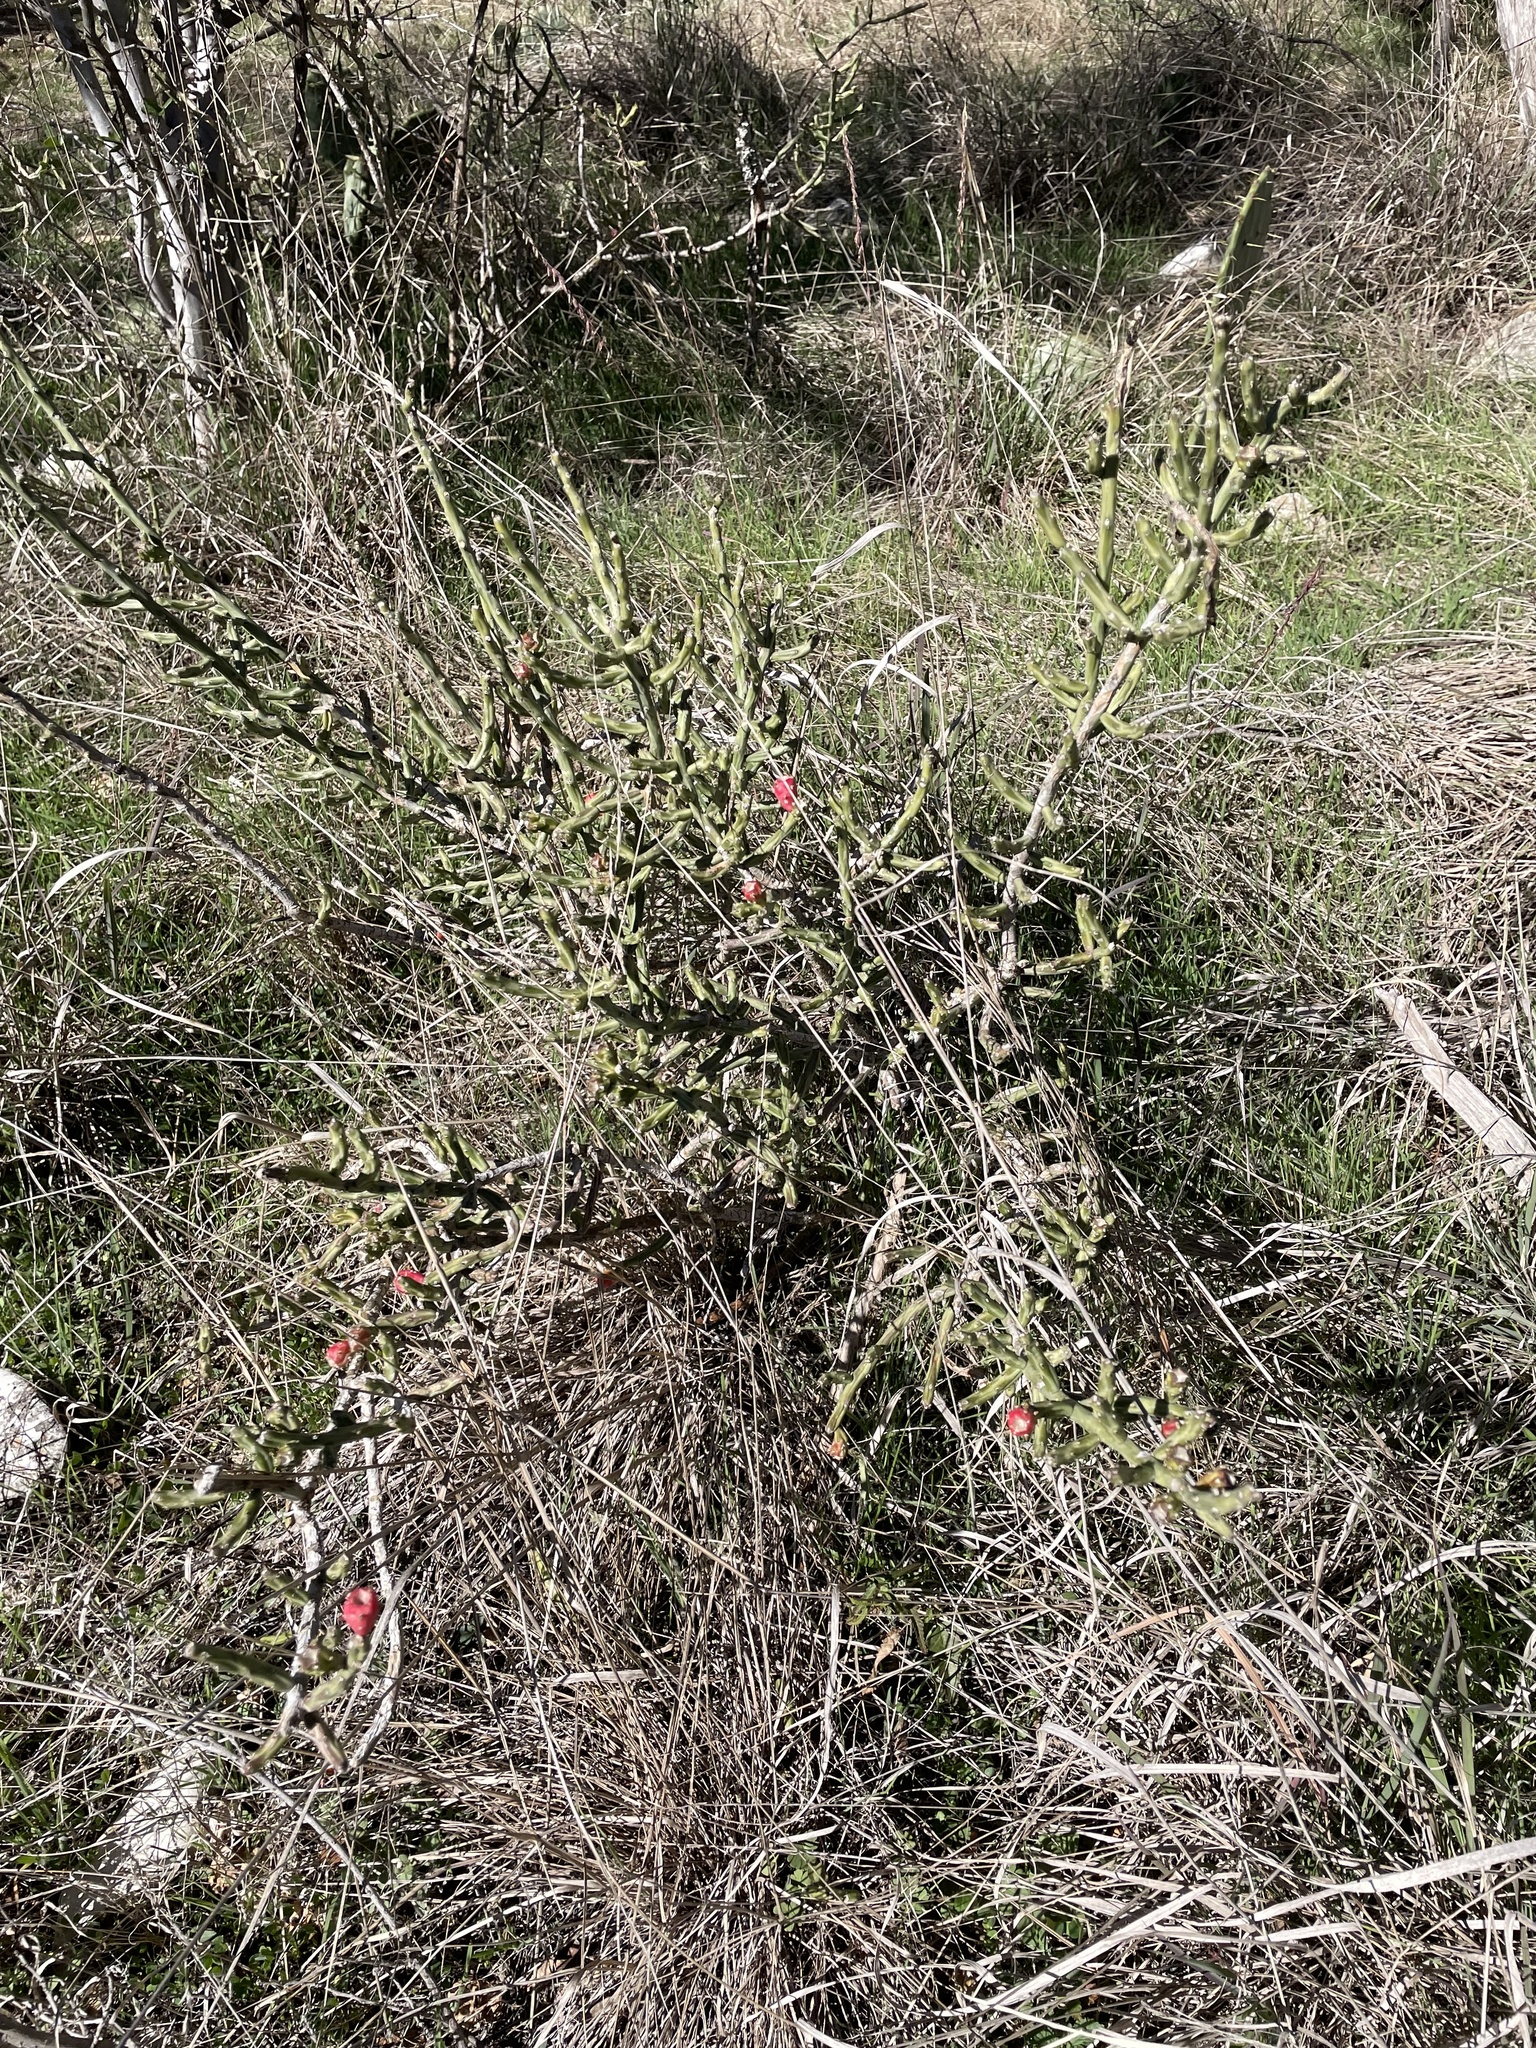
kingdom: Plantae
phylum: Tracheophyta
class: Magnoliopsida
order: Caryophyllales
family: Cactaceae
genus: Cylindropuntia
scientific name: Cylindropuntia leptocaulis
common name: Christmas cactus
